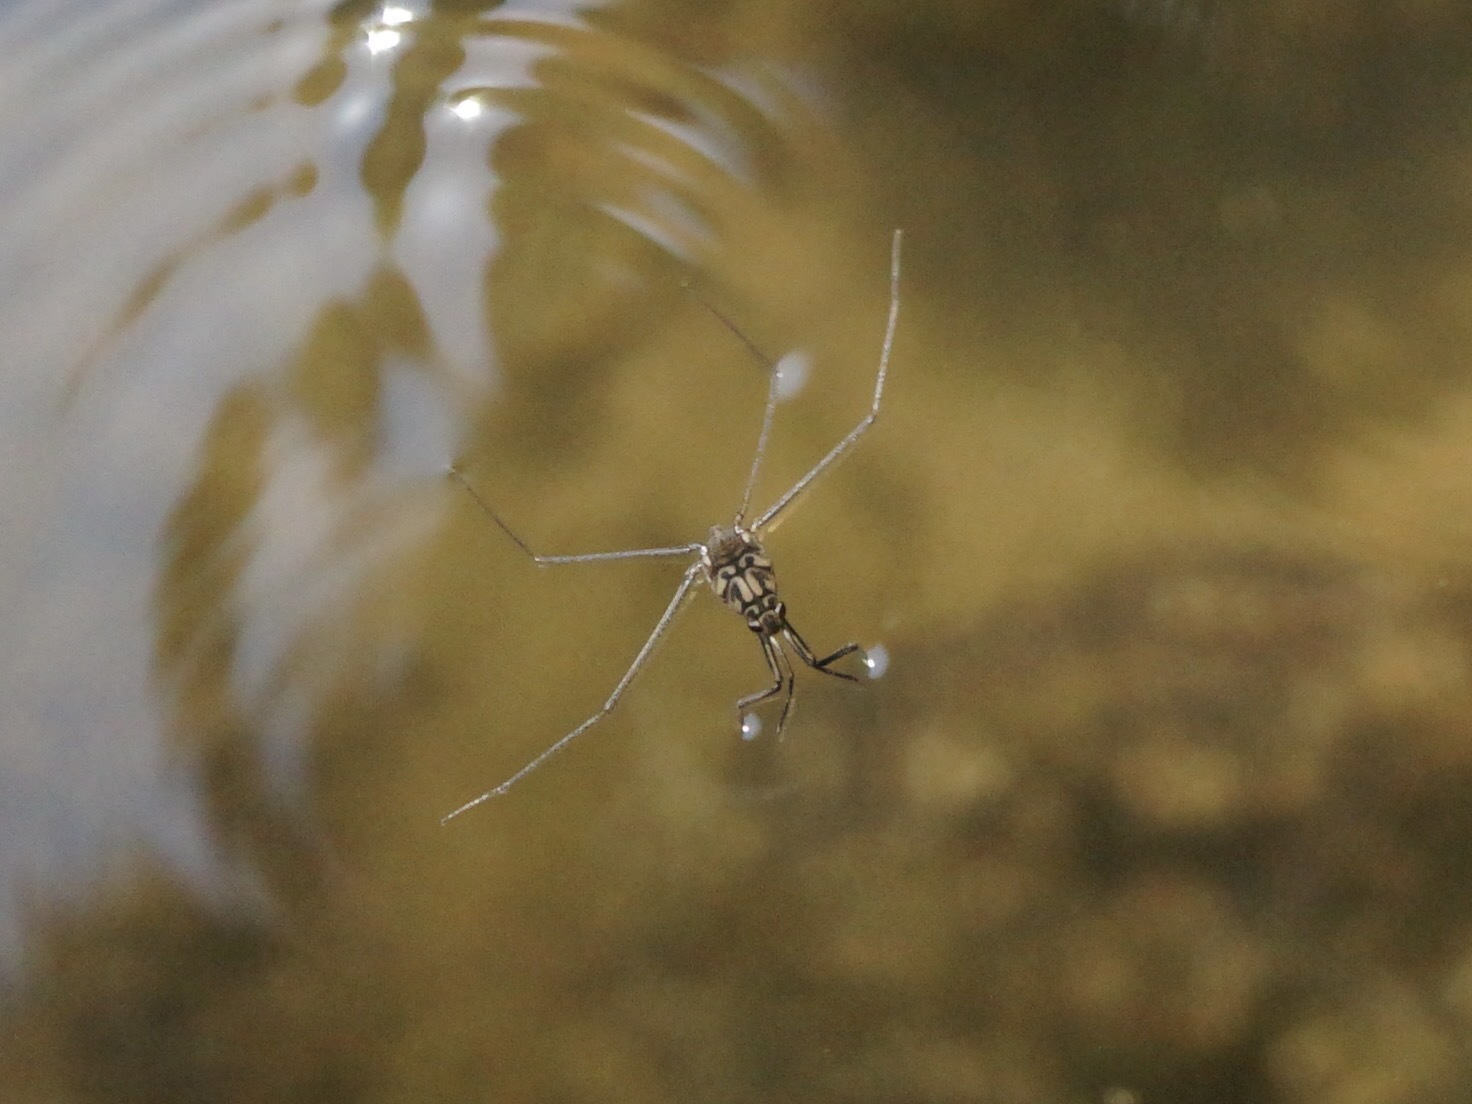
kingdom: Animalia
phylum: Arthropoda
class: Insecta
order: Hemiptera
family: Gerridae
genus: Metrocoris
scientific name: Metrocoris histrio
